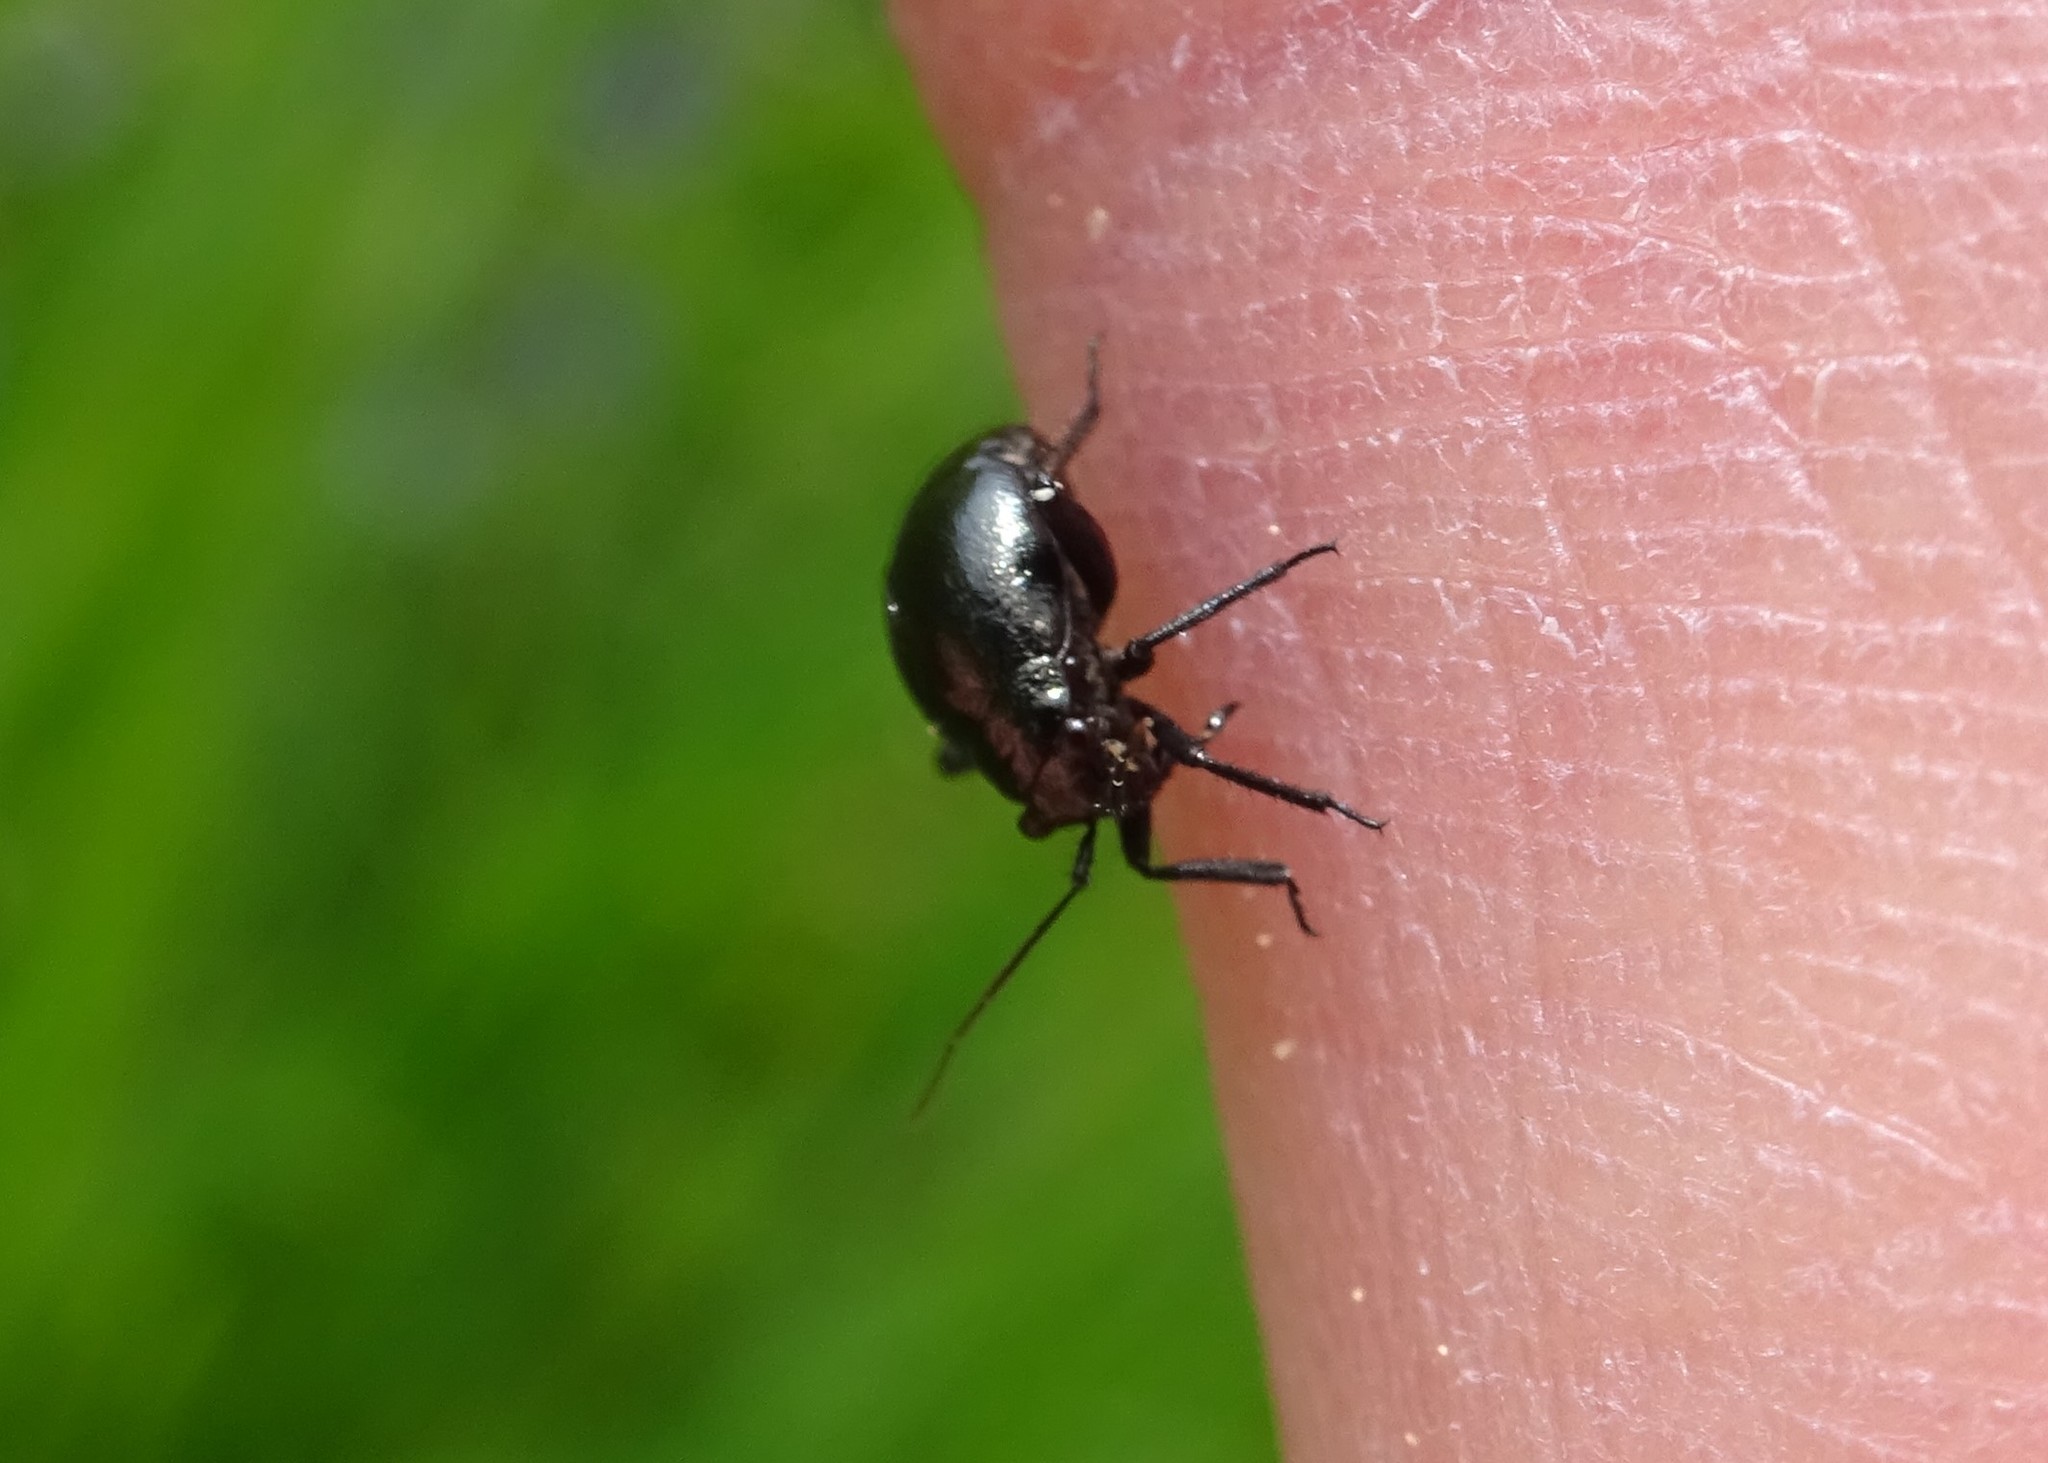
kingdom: Animalia
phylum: Arthropoda
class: Insecta
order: Hemiptera
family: Miridae
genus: Euryopicoris
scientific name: Euryopicoris nitidus
